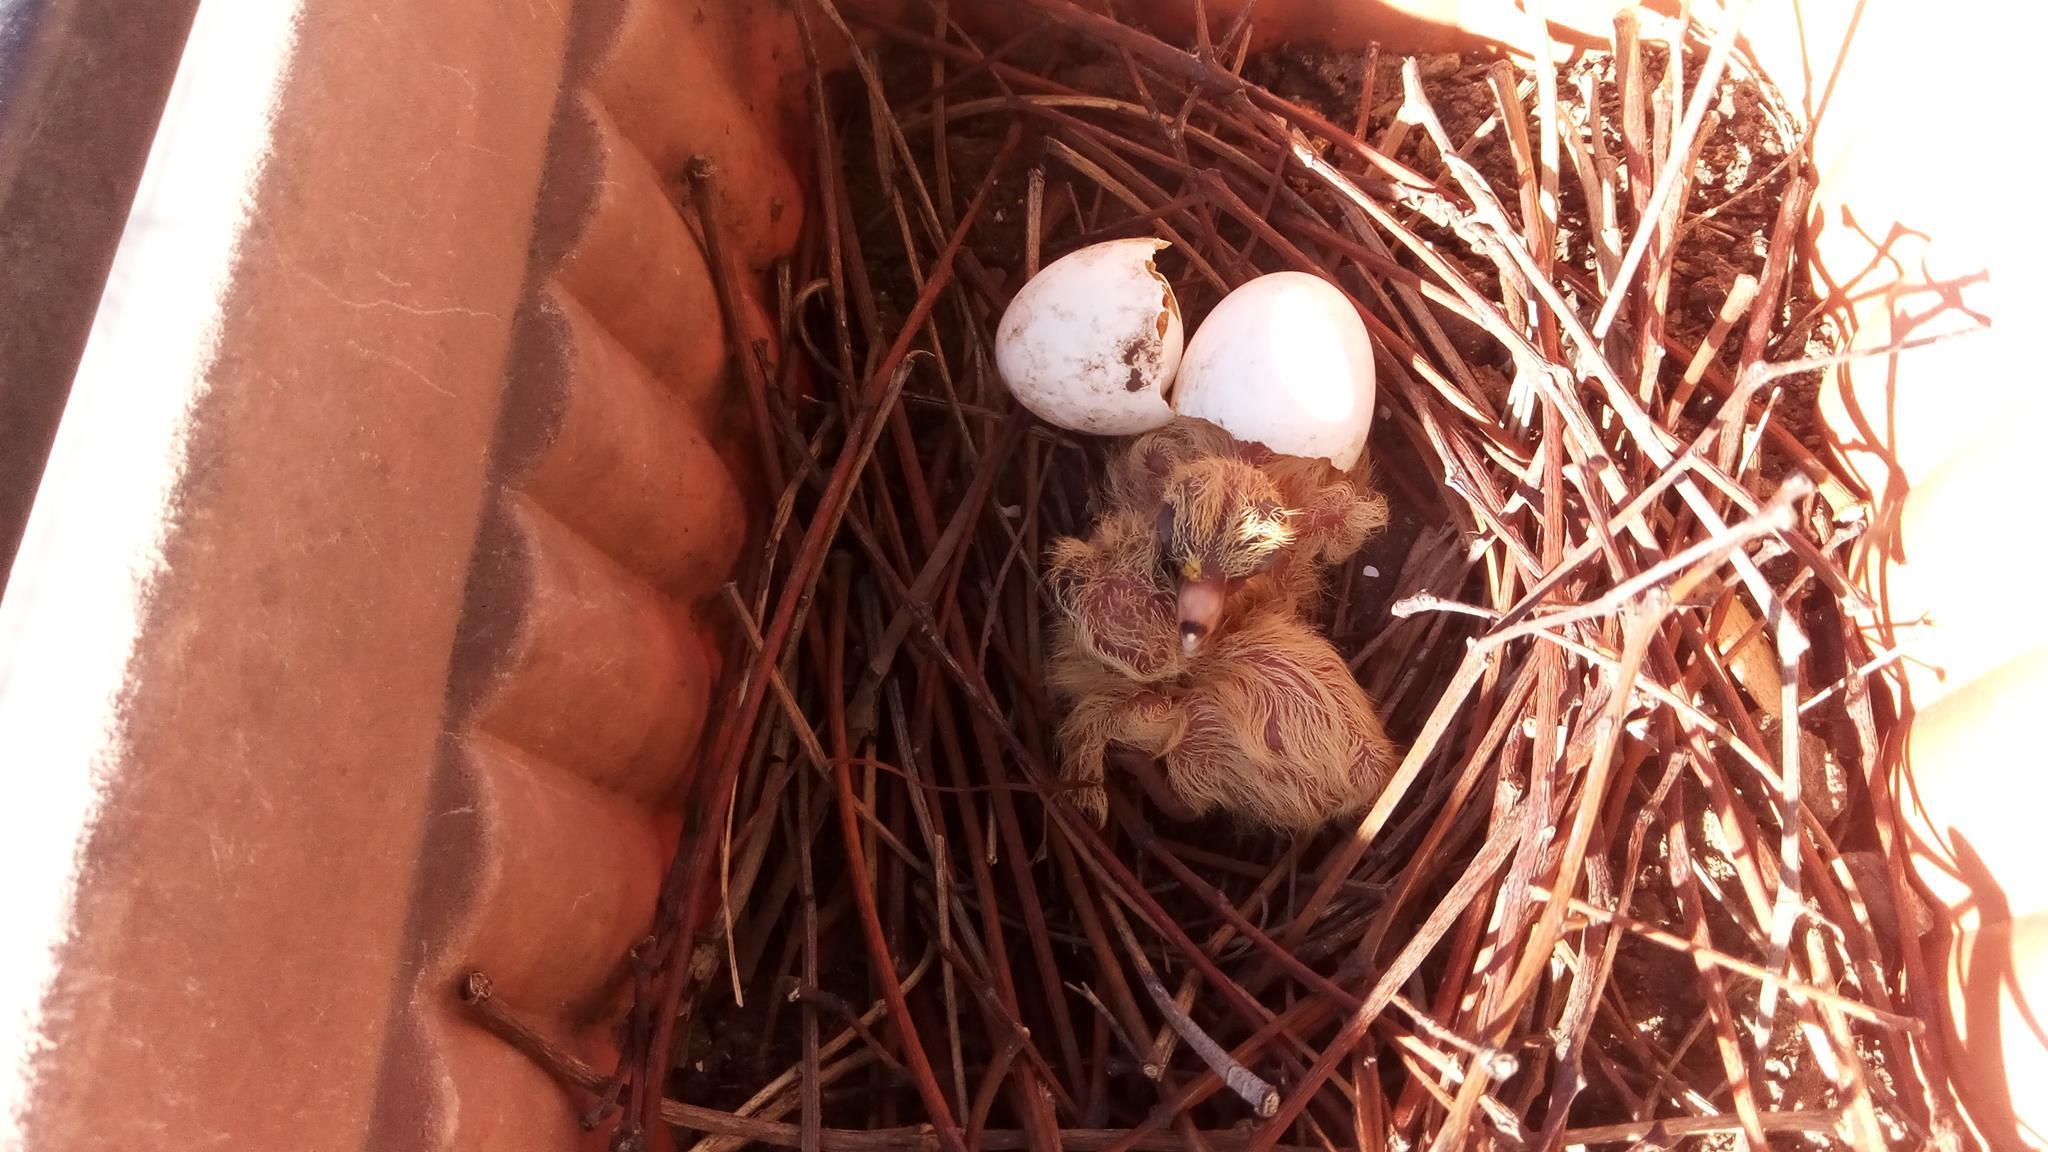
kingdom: Animalia
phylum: Chordata
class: Aves
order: Columbiformes
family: Columbidae
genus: Zenaida
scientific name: Zenaida auriculata
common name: Eared dove
